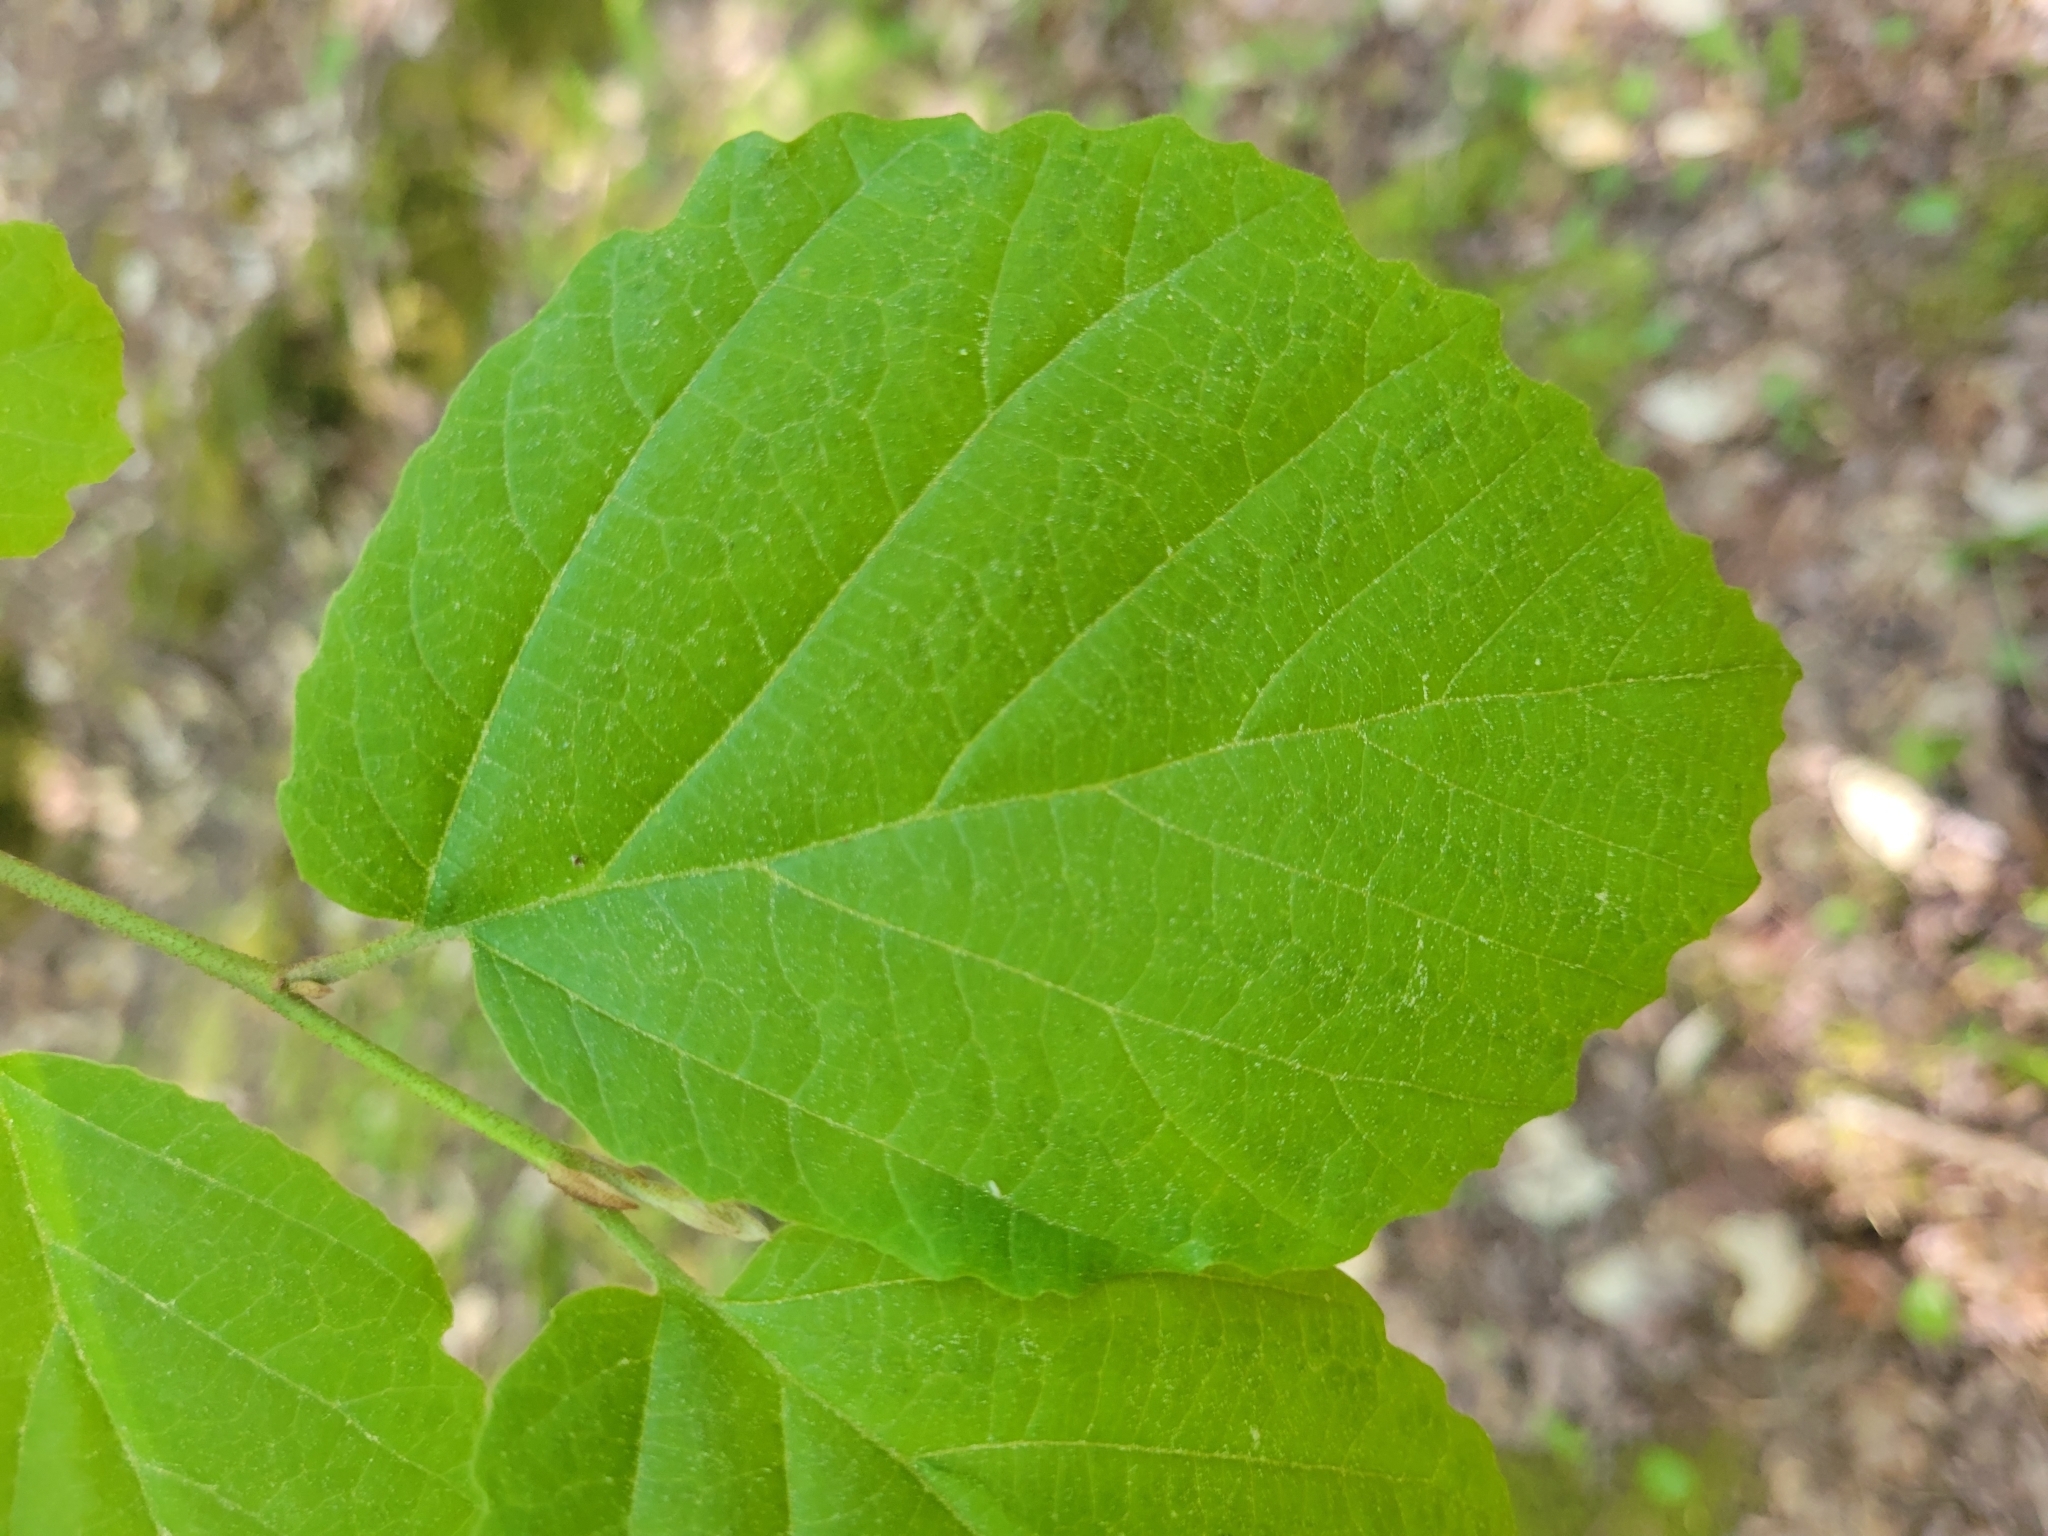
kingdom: Plantae
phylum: Tracheophyta
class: Magnoliopsida
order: Saxifragales
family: Hamamelidaceae
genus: Hamamelis
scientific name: Hamamelis virginiana
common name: Witch-hazel
